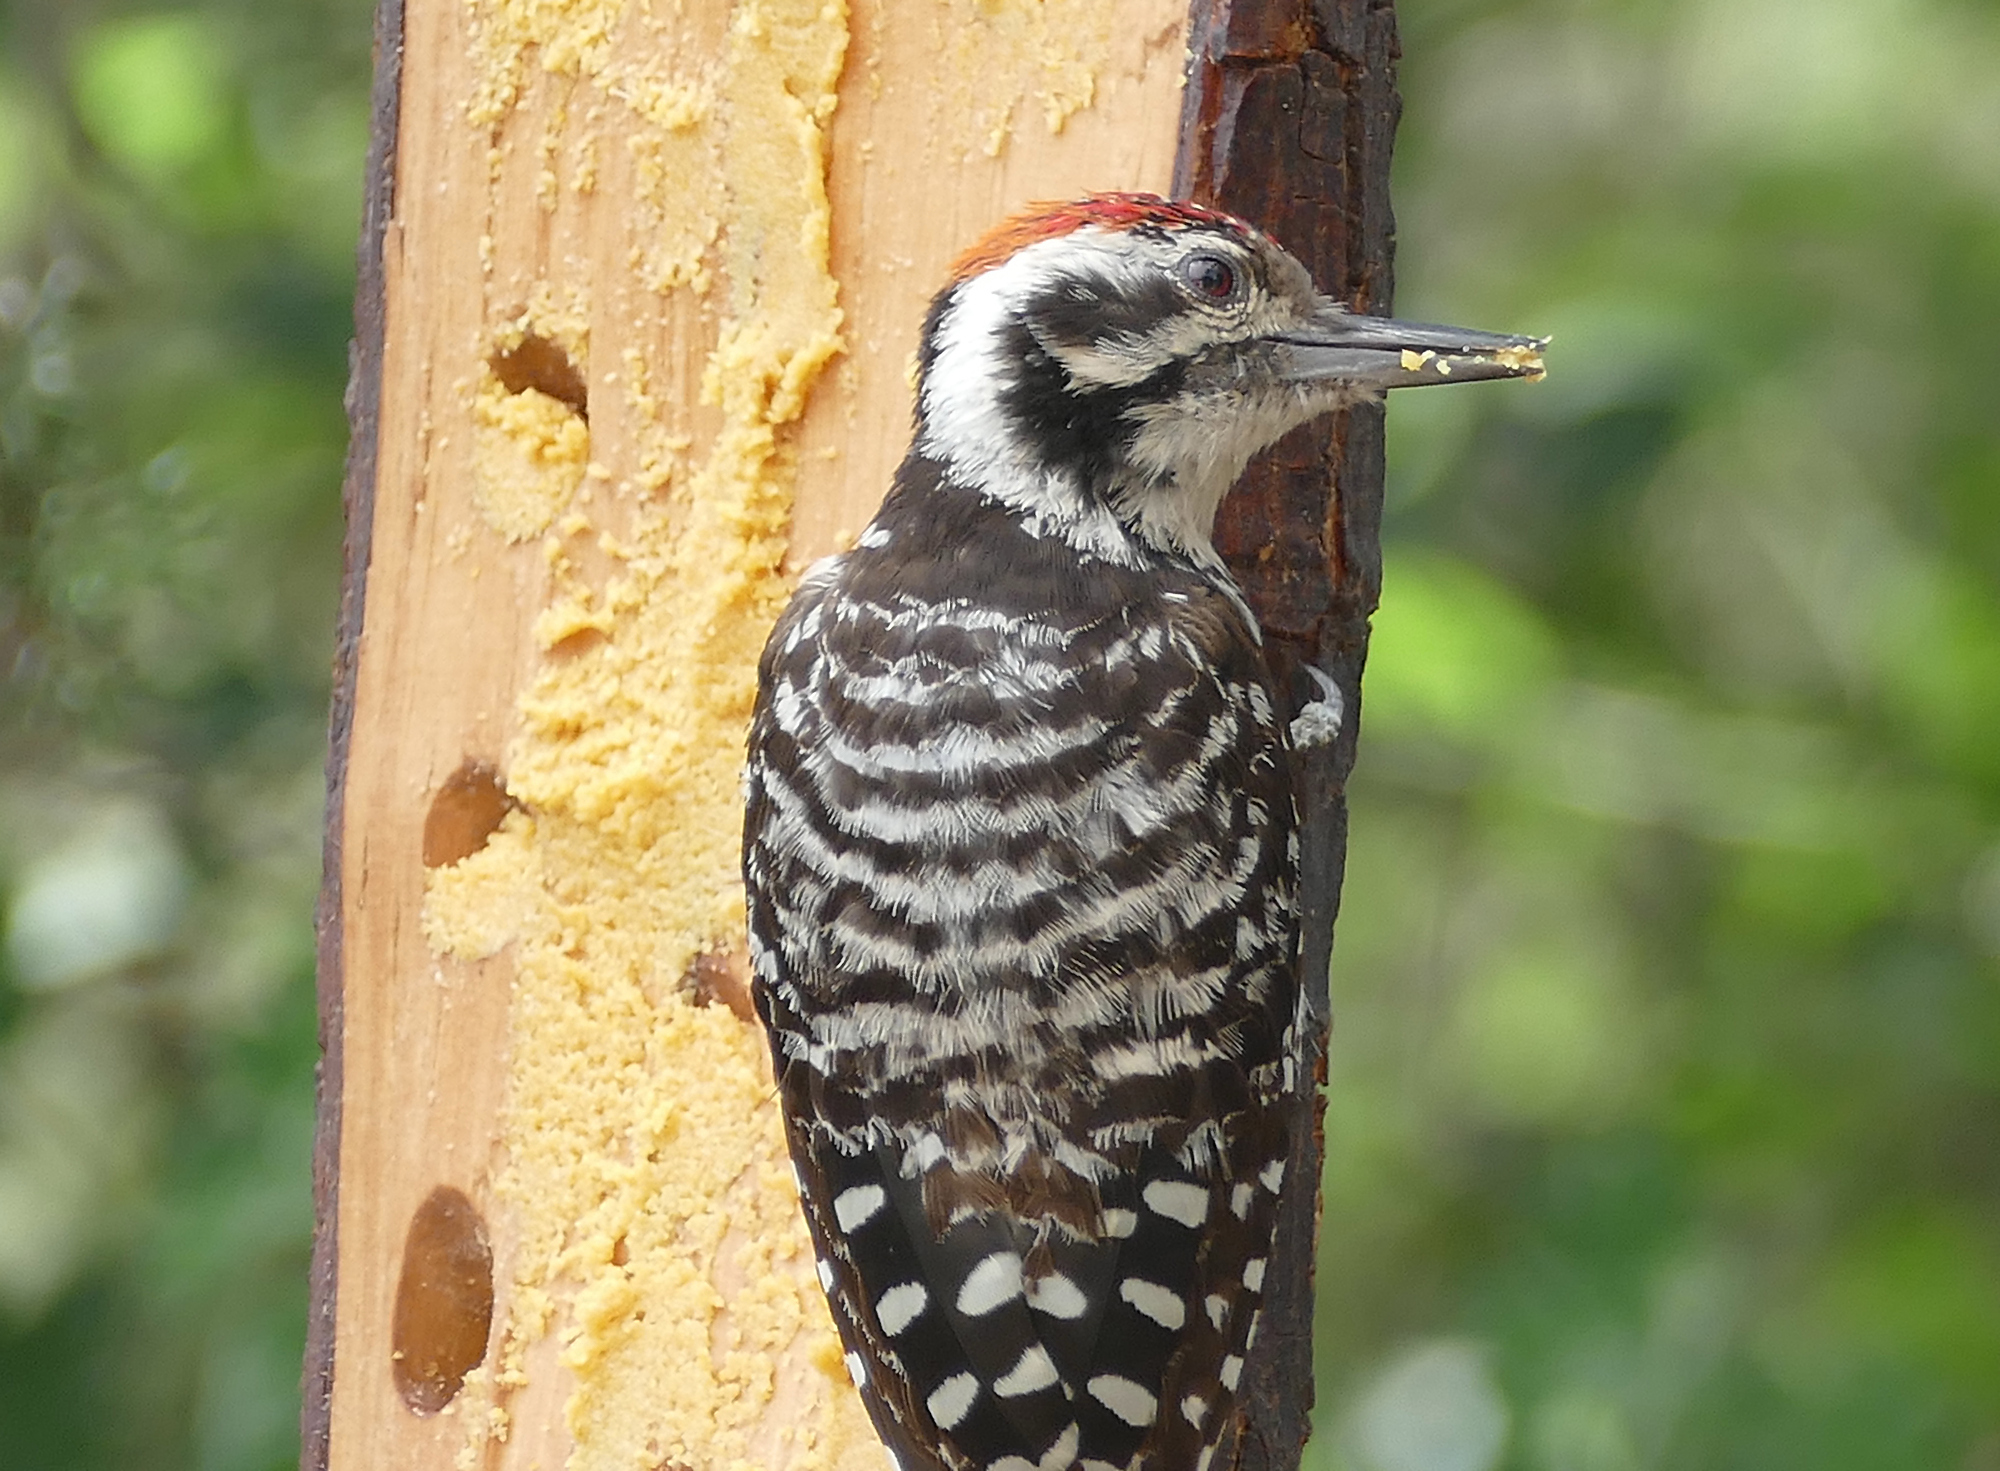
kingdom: Animalia
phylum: Chordata
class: Aves
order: Piciformes
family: Picidae
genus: Dryobates
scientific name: Dryobates scalaris
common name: Ladder-backed woodpecker
